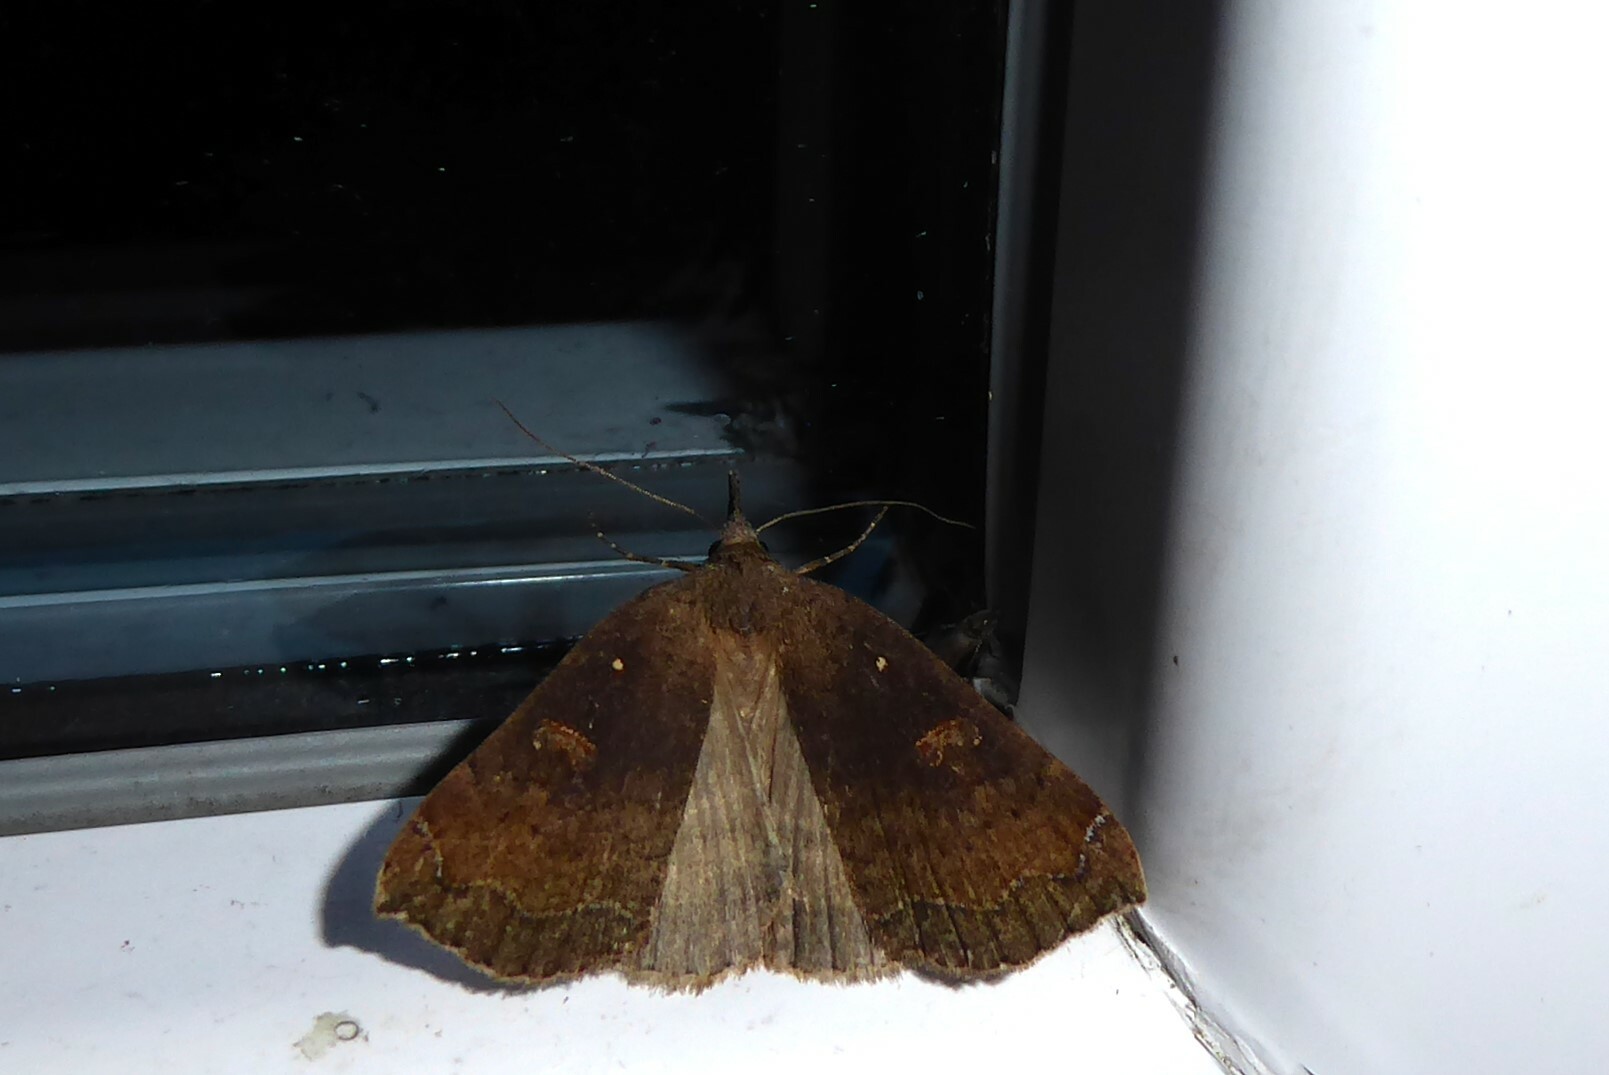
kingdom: Animalia
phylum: Arthropoda
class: Insecta
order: Lepidoptera
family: Erebidae
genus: Rhapsa
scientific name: Rhapsa scotosialis
